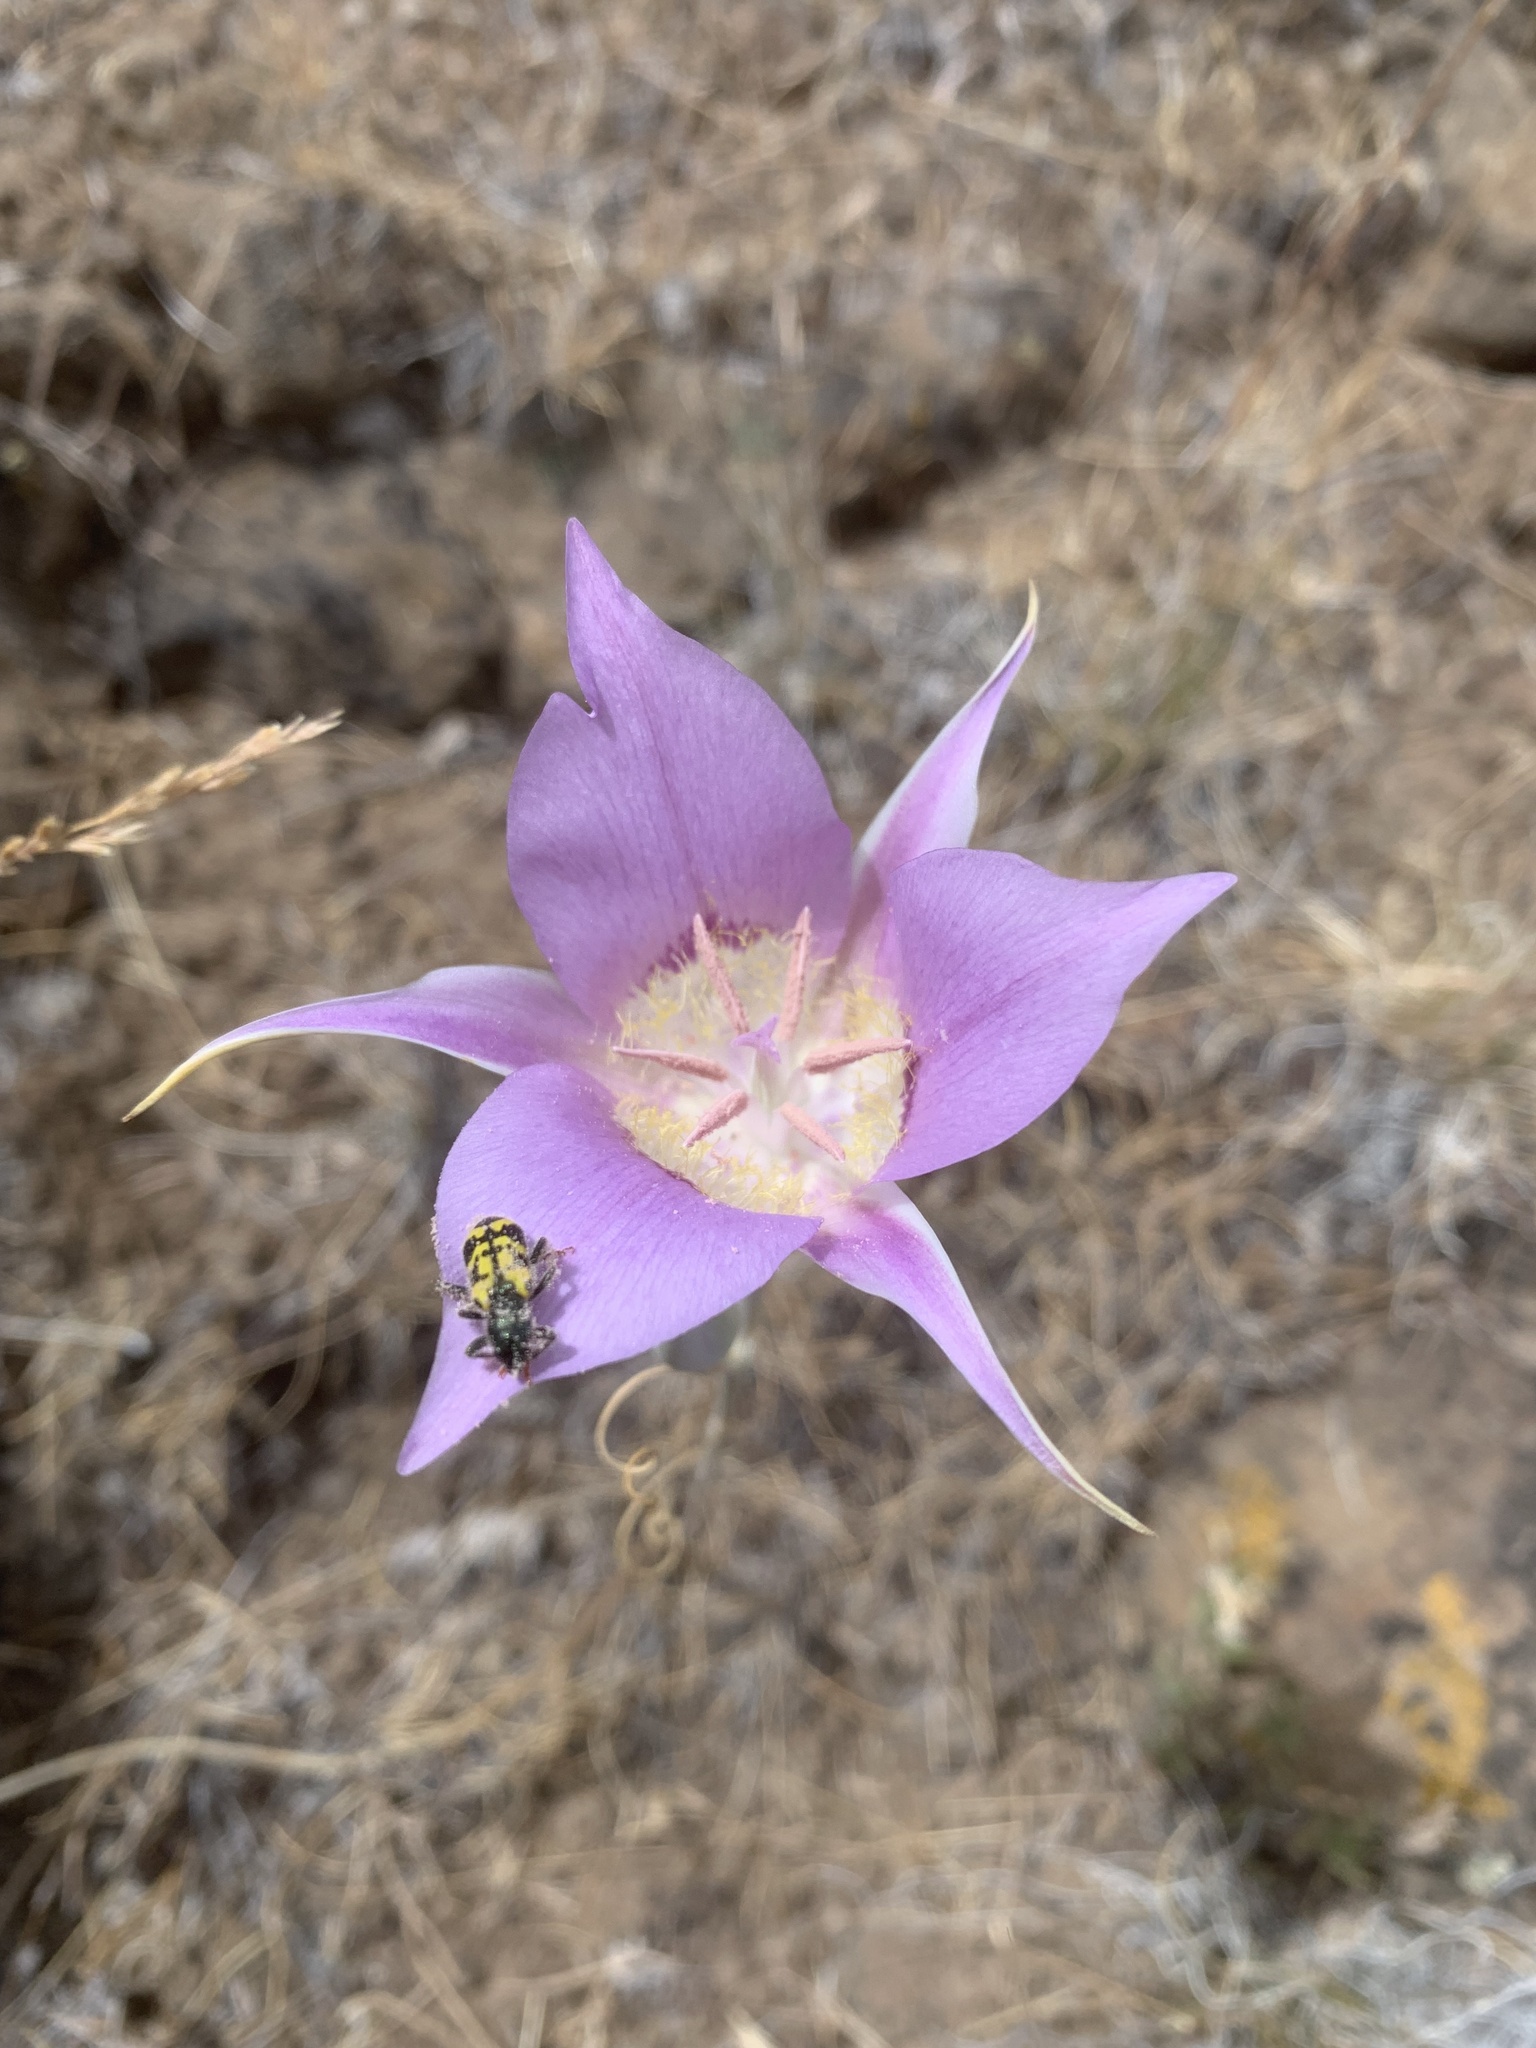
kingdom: Plantae
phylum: Tracheophyta
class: Liliopsida
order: Liliales
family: Liliaceae
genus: Calochortus
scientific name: Calochortus macrocarpus
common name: Green-band mariposa lily
